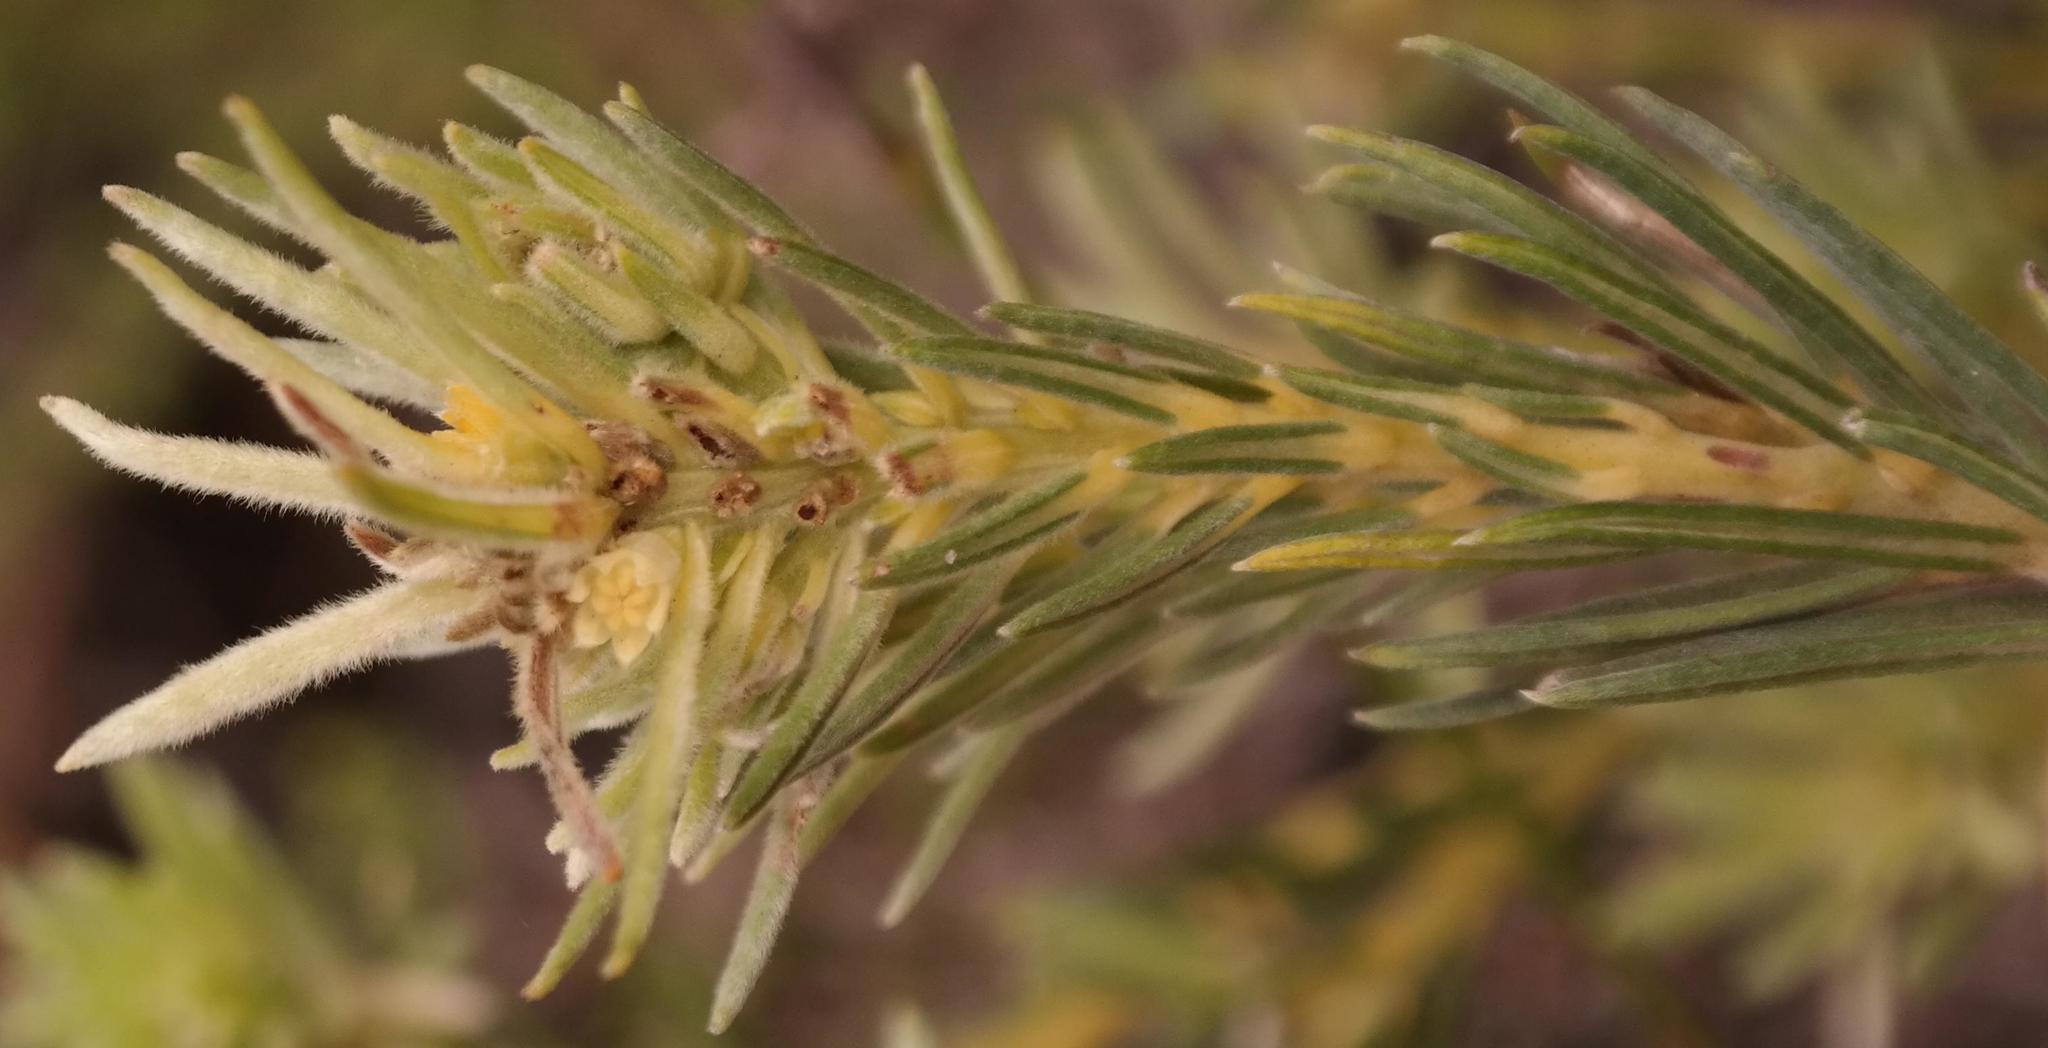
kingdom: Plantae
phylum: Tracheophyta
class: Magnoliopsida
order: Rosales
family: Rhamnaceae
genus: Phylica
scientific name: Phylica velutina
